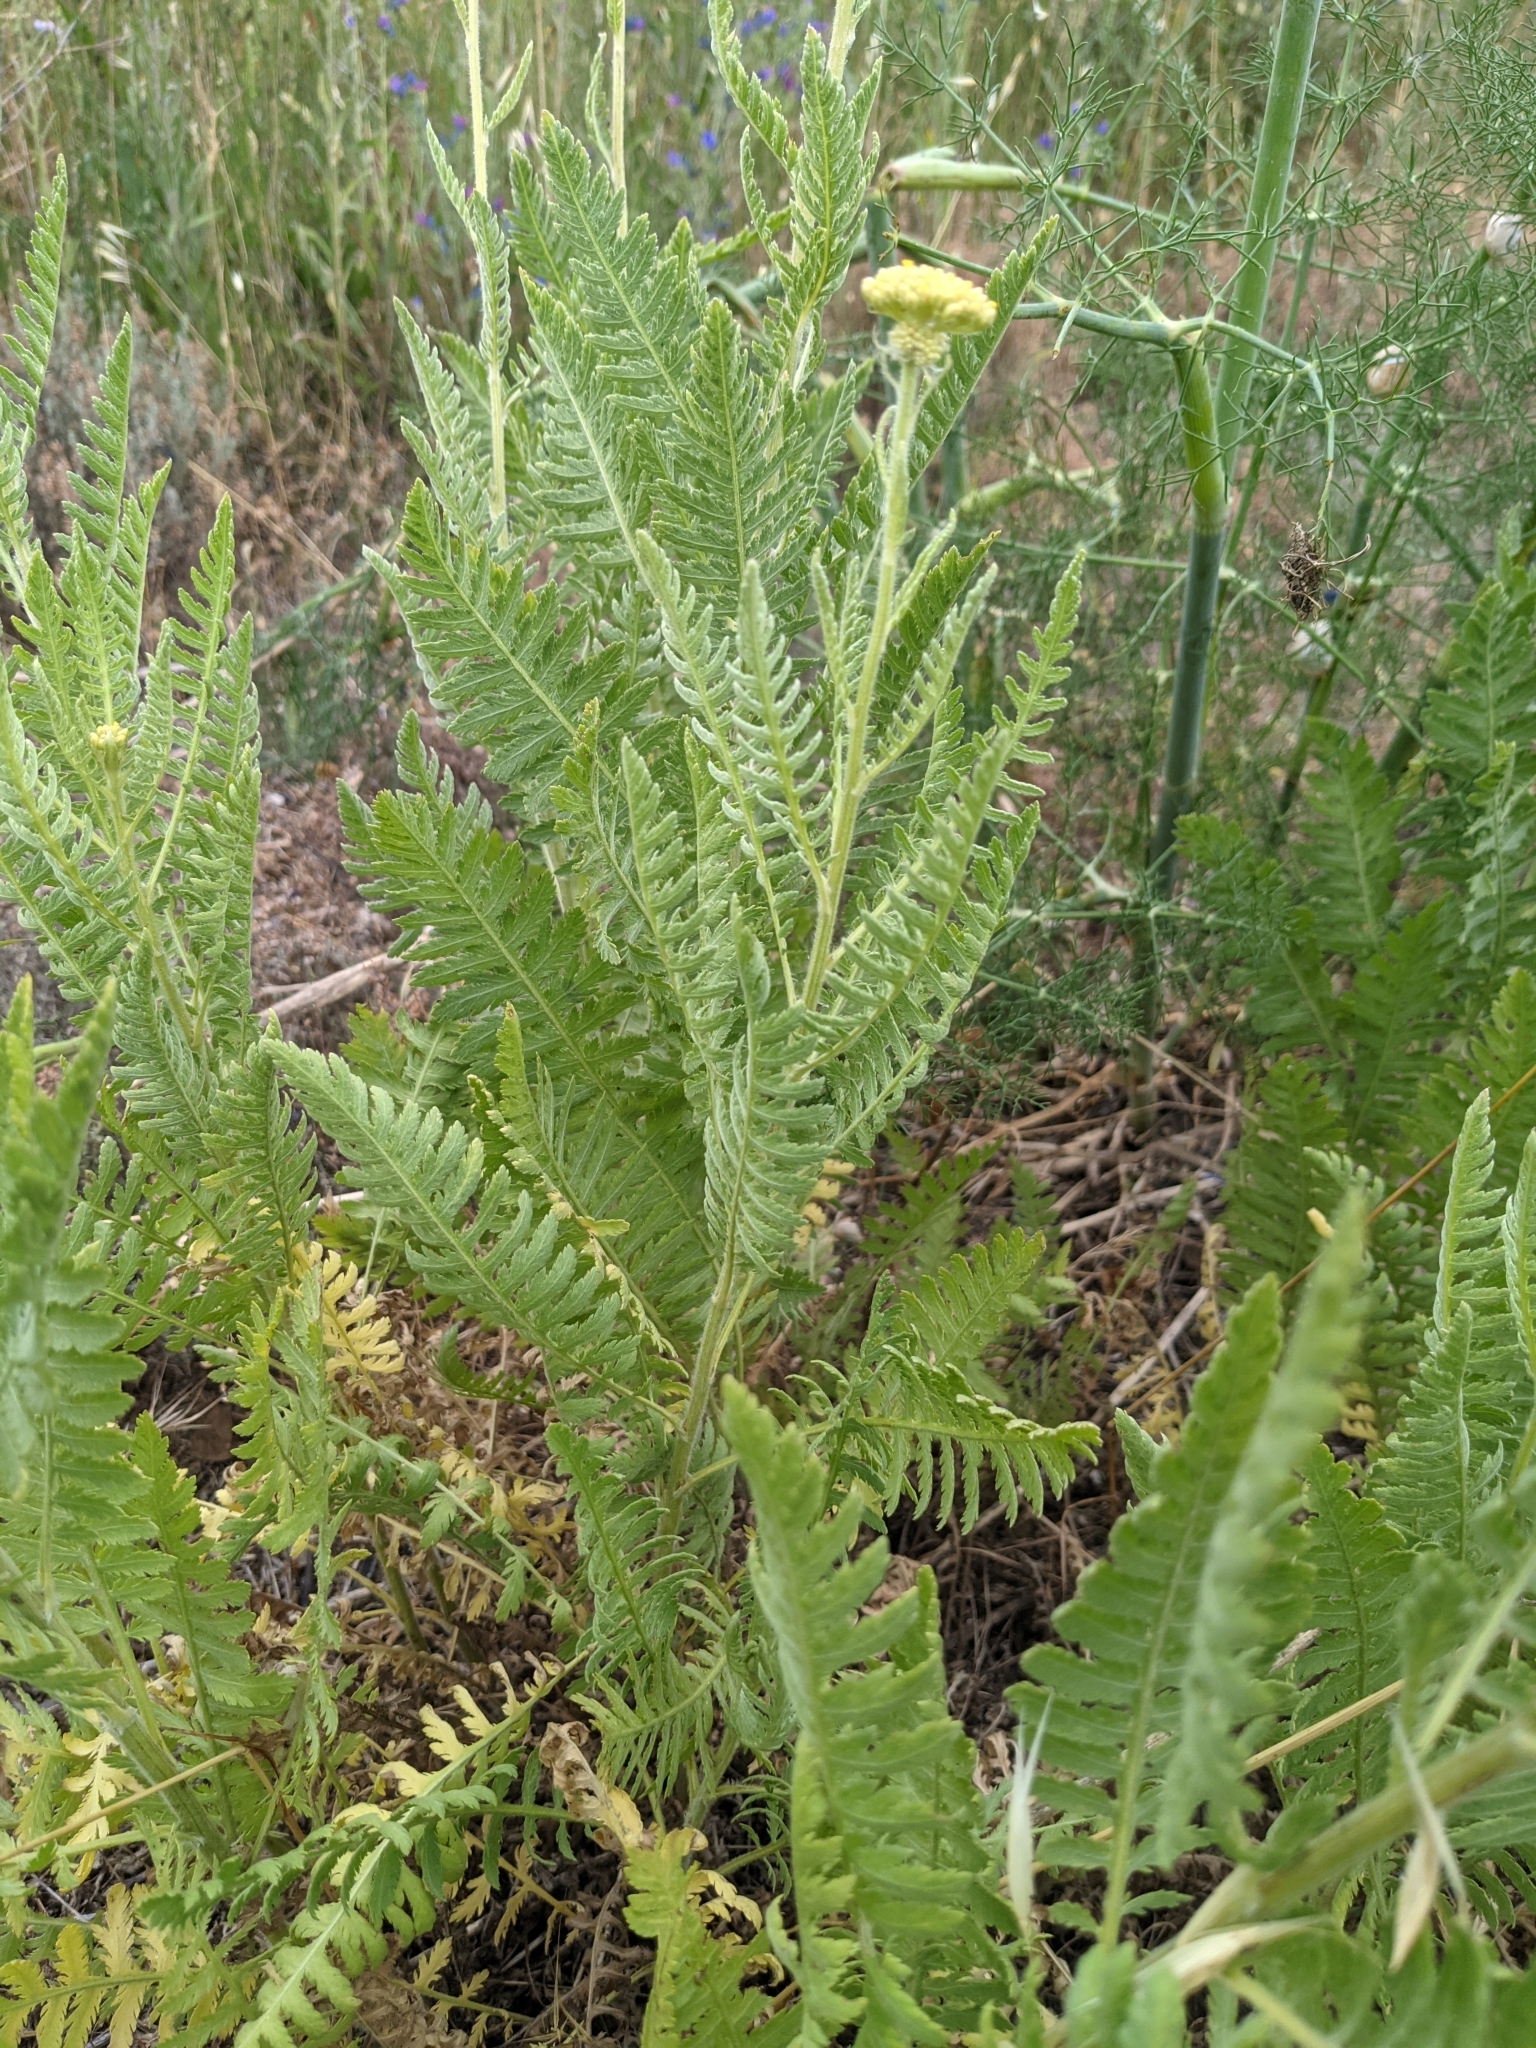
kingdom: Plantae
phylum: Tracheophyta
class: Magnoliopsida
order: Asterales
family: Asteraceae
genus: Achillea
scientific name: Achillea filipendulina
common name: Fernleaf yarrow
